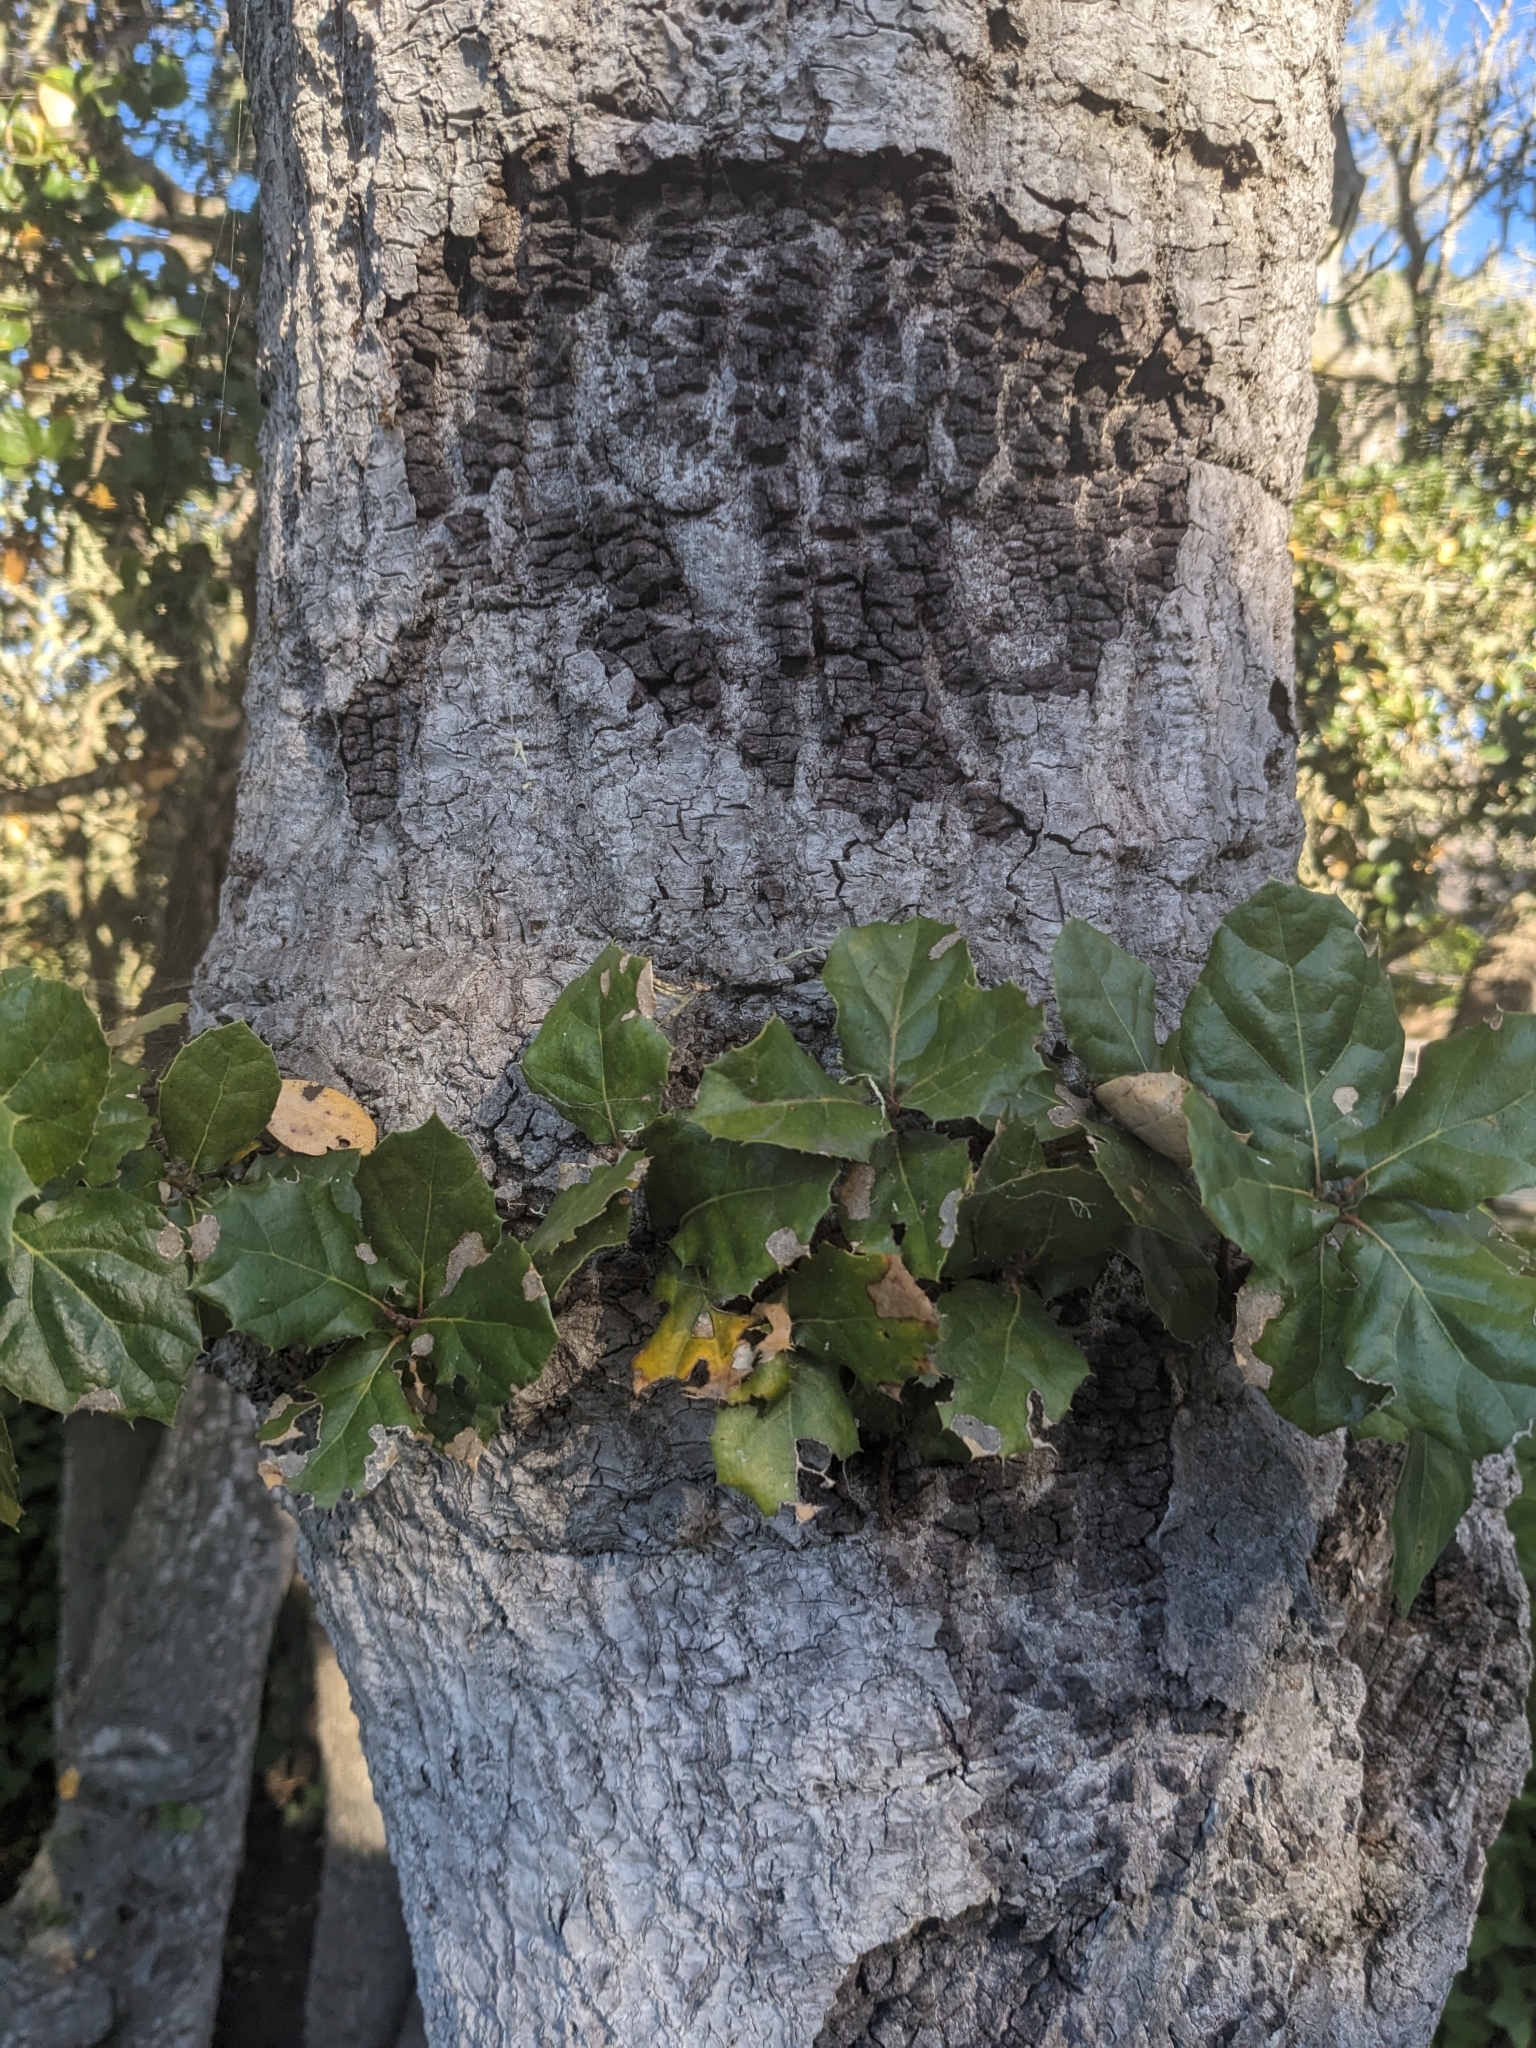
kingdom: Plantae
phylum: Tracheophyta
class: Magnoliopsida
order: Fagales
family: Fagaceae
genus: Quercus
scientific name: Quercus agrifolia
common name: California live oak
